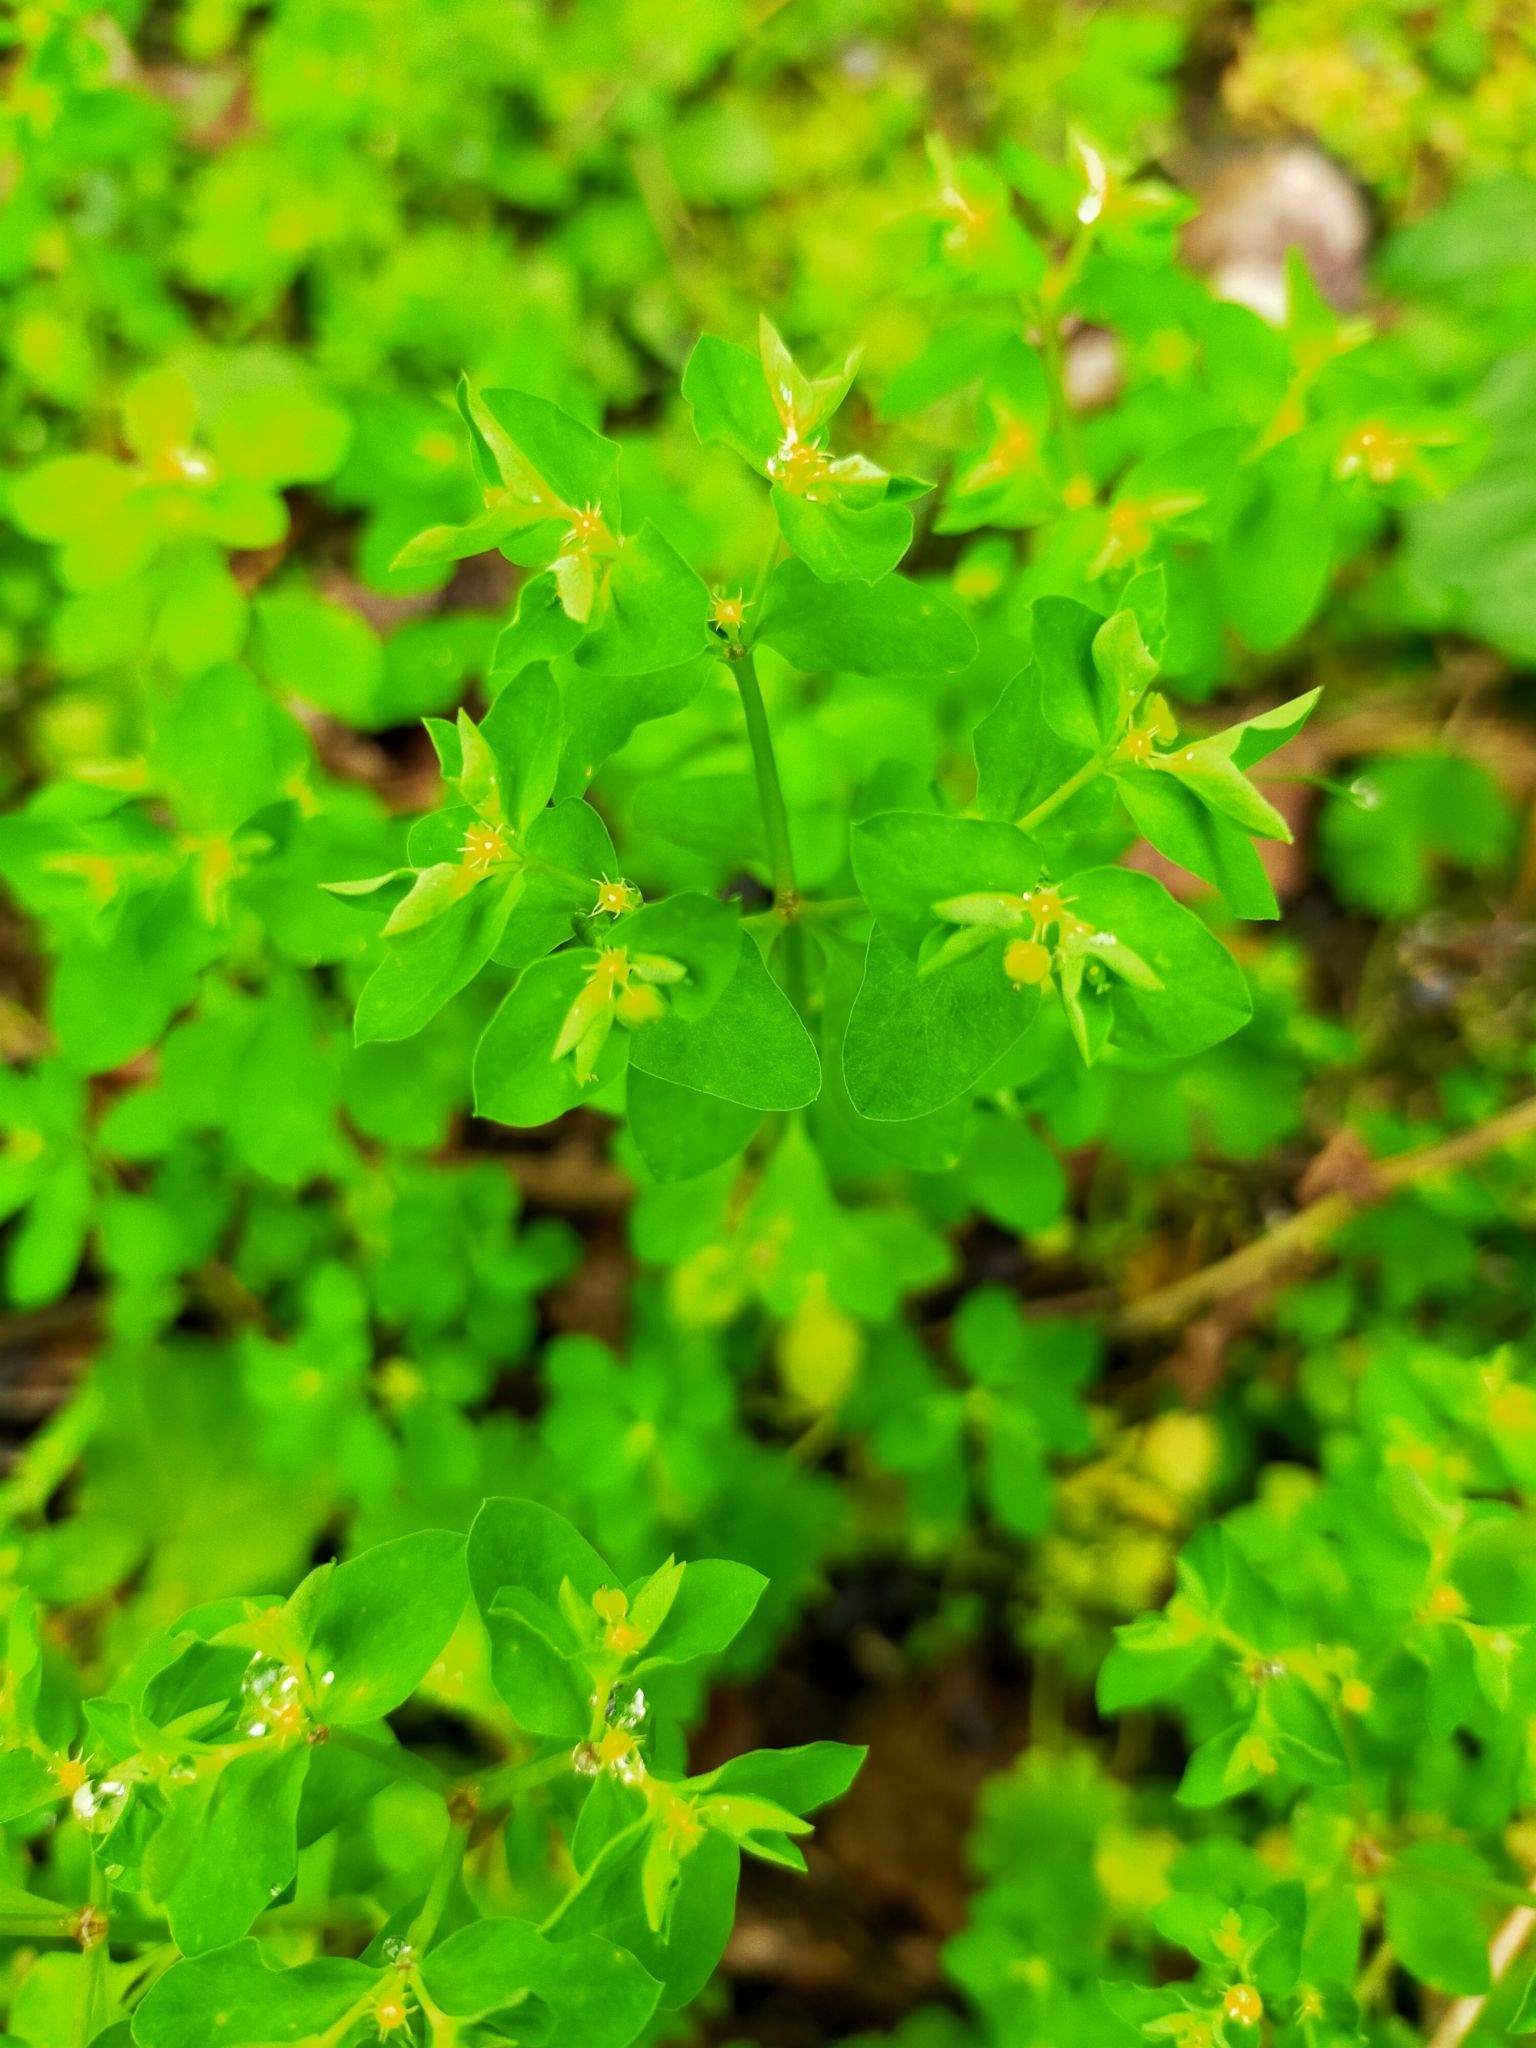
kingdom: Plantae
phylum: Tracheophyta
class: Magnoliopsida
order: Malpighiales
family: Euphorbiaceae
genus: Euphorbia
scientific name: Euphorbia peplus
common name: Petty spurge
